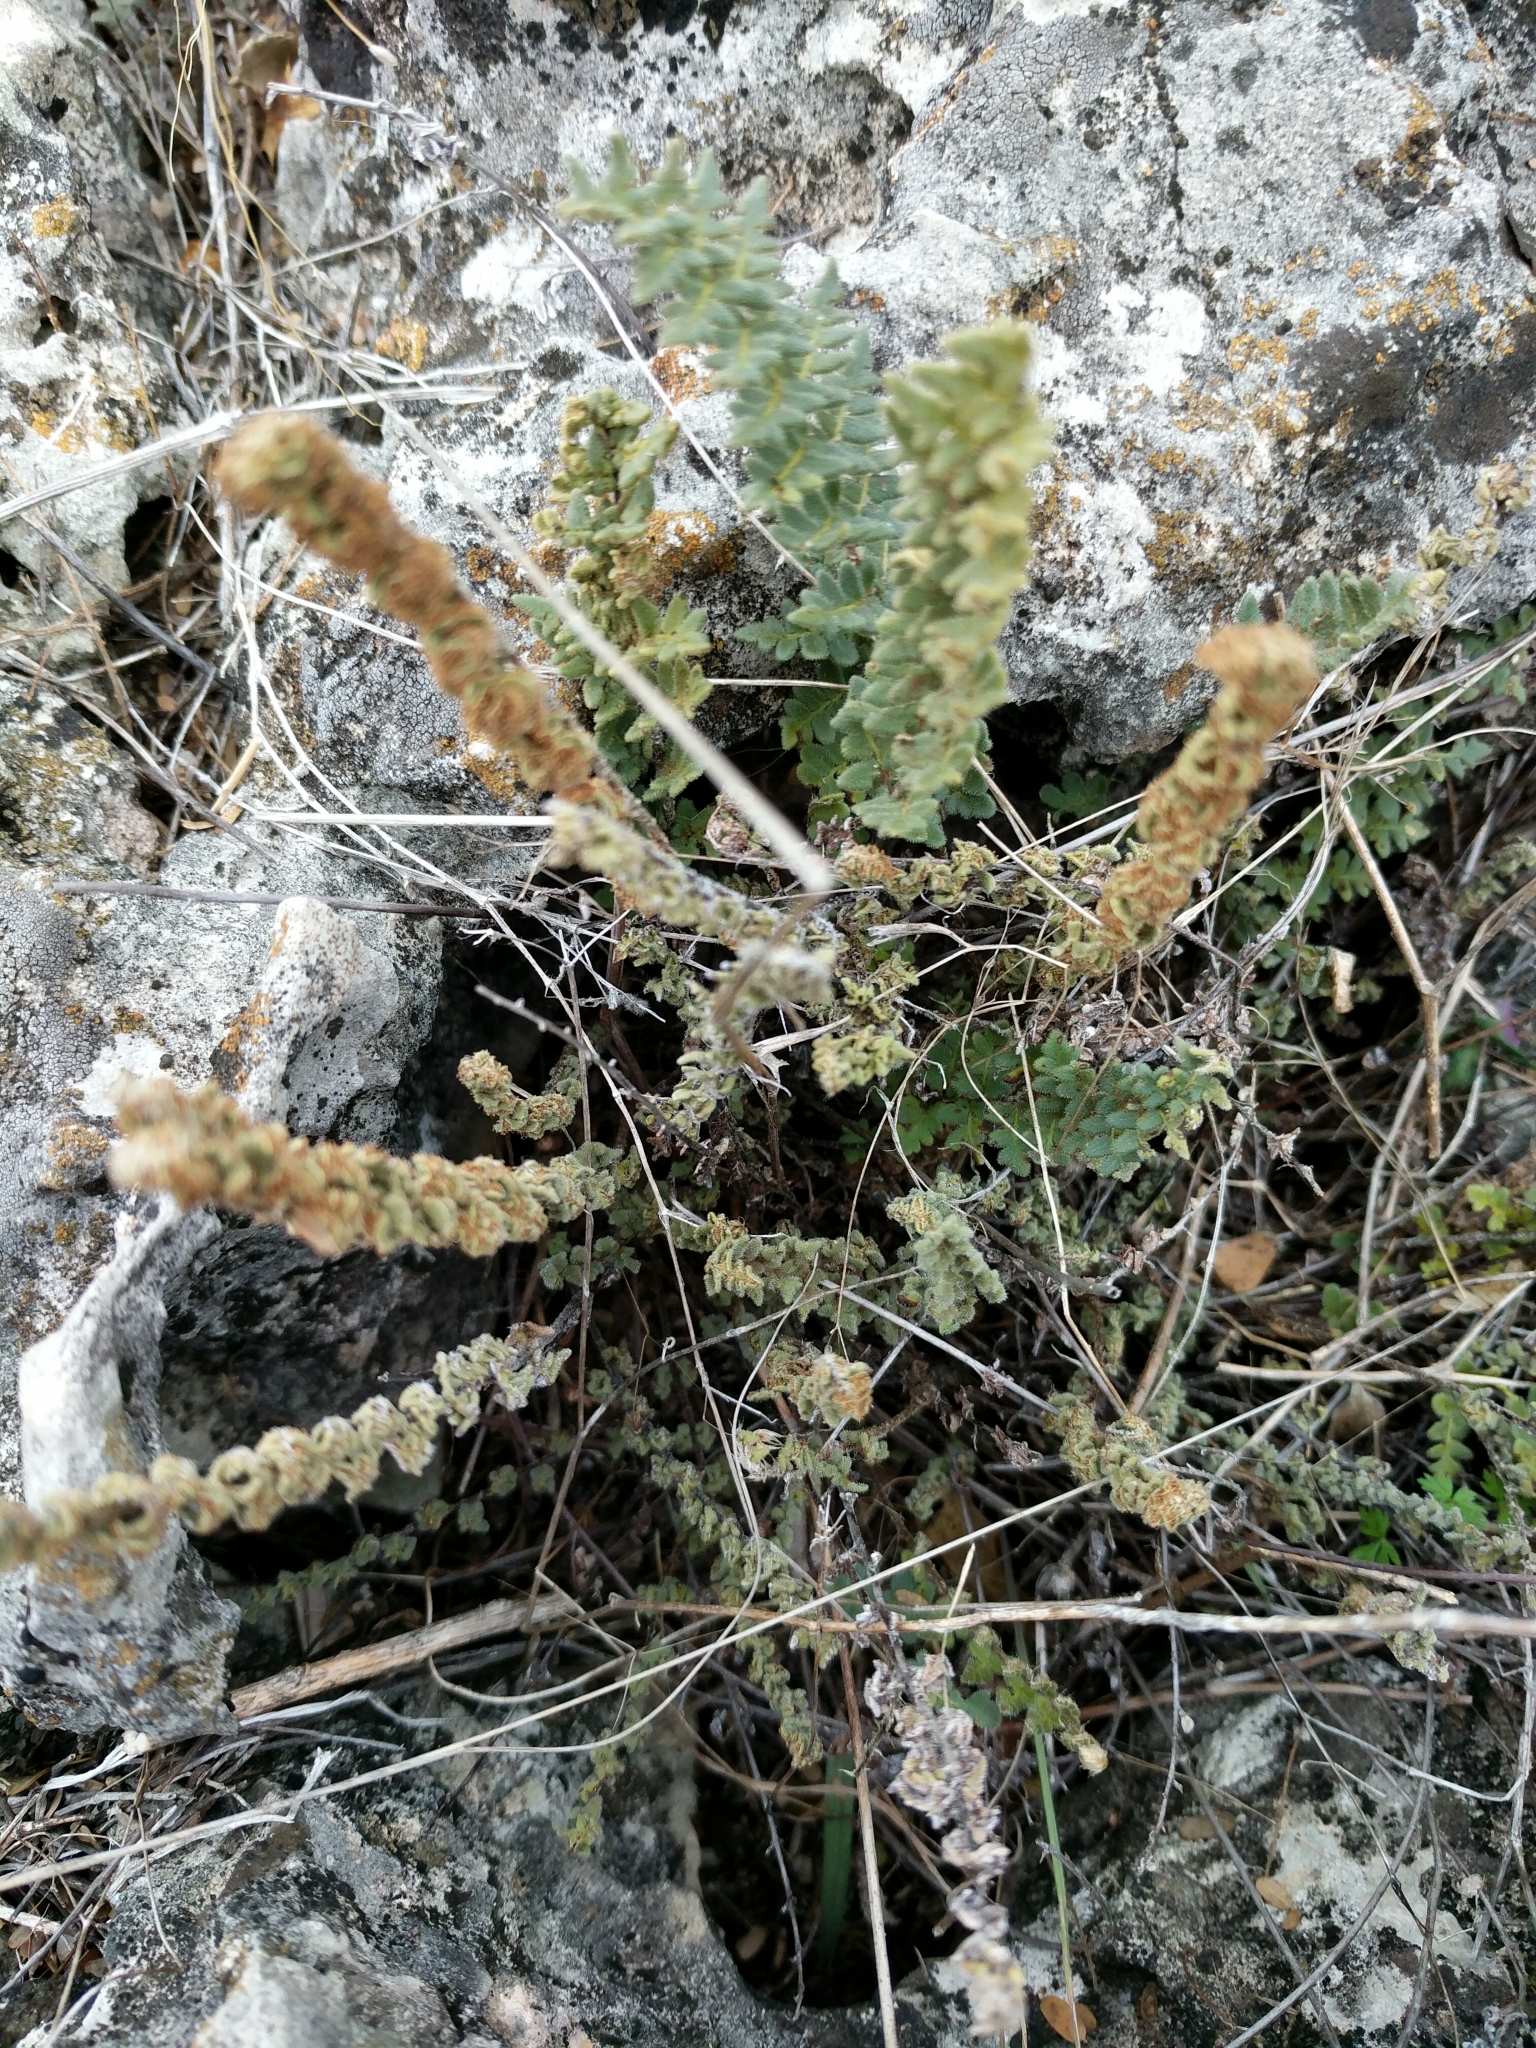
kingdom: Plantae
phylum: Tracheophyta
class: Polypodiopsida
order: Polypodiales
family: Pteridaceae
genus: Myriopteris
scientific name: Myriopteris scabra
